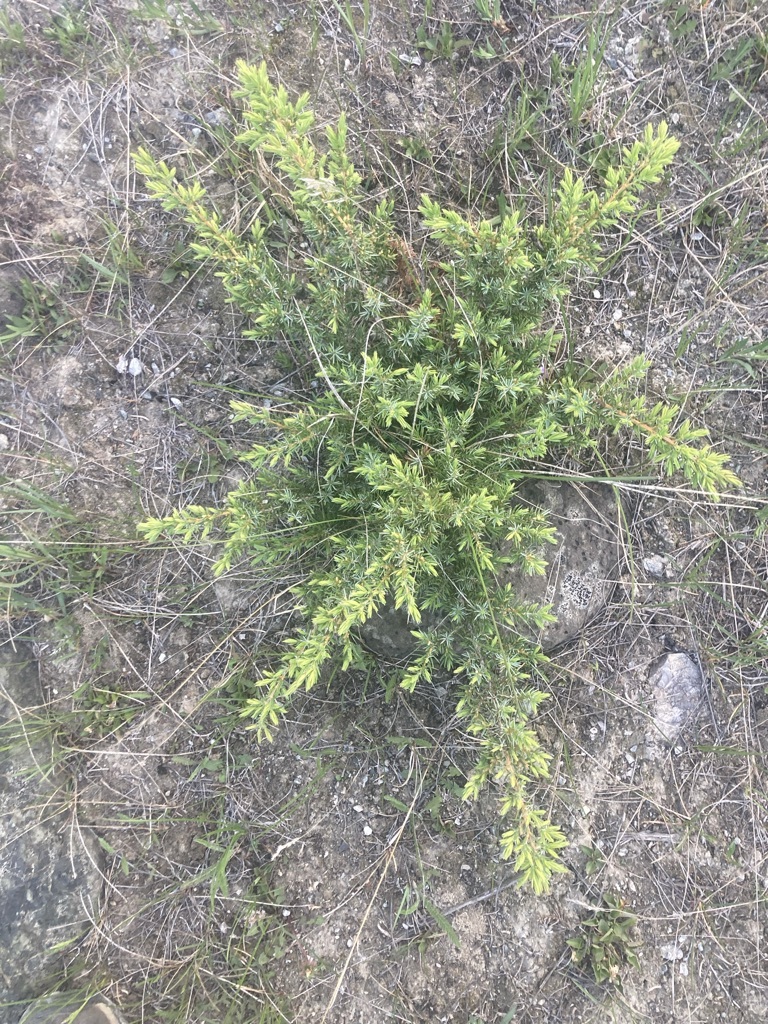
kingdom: Plantae
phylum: Tracheophyta
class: Pinopsida
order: Pinales
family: Cupressaceae
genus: Juniperus
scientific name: Juniperus communis
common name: Common juniper
